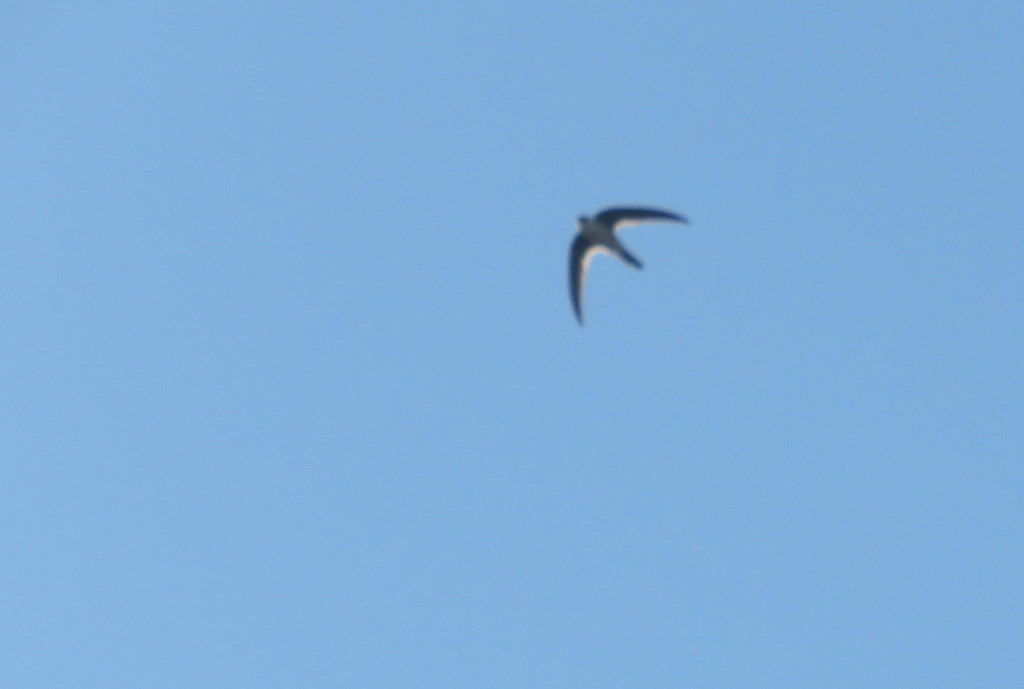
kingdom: Animalia
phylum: Chordata
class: Aves
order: Apodiformes
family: Apodidae
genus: Aeronautes
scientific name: Aeronautes andecolus
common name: Andean swift
